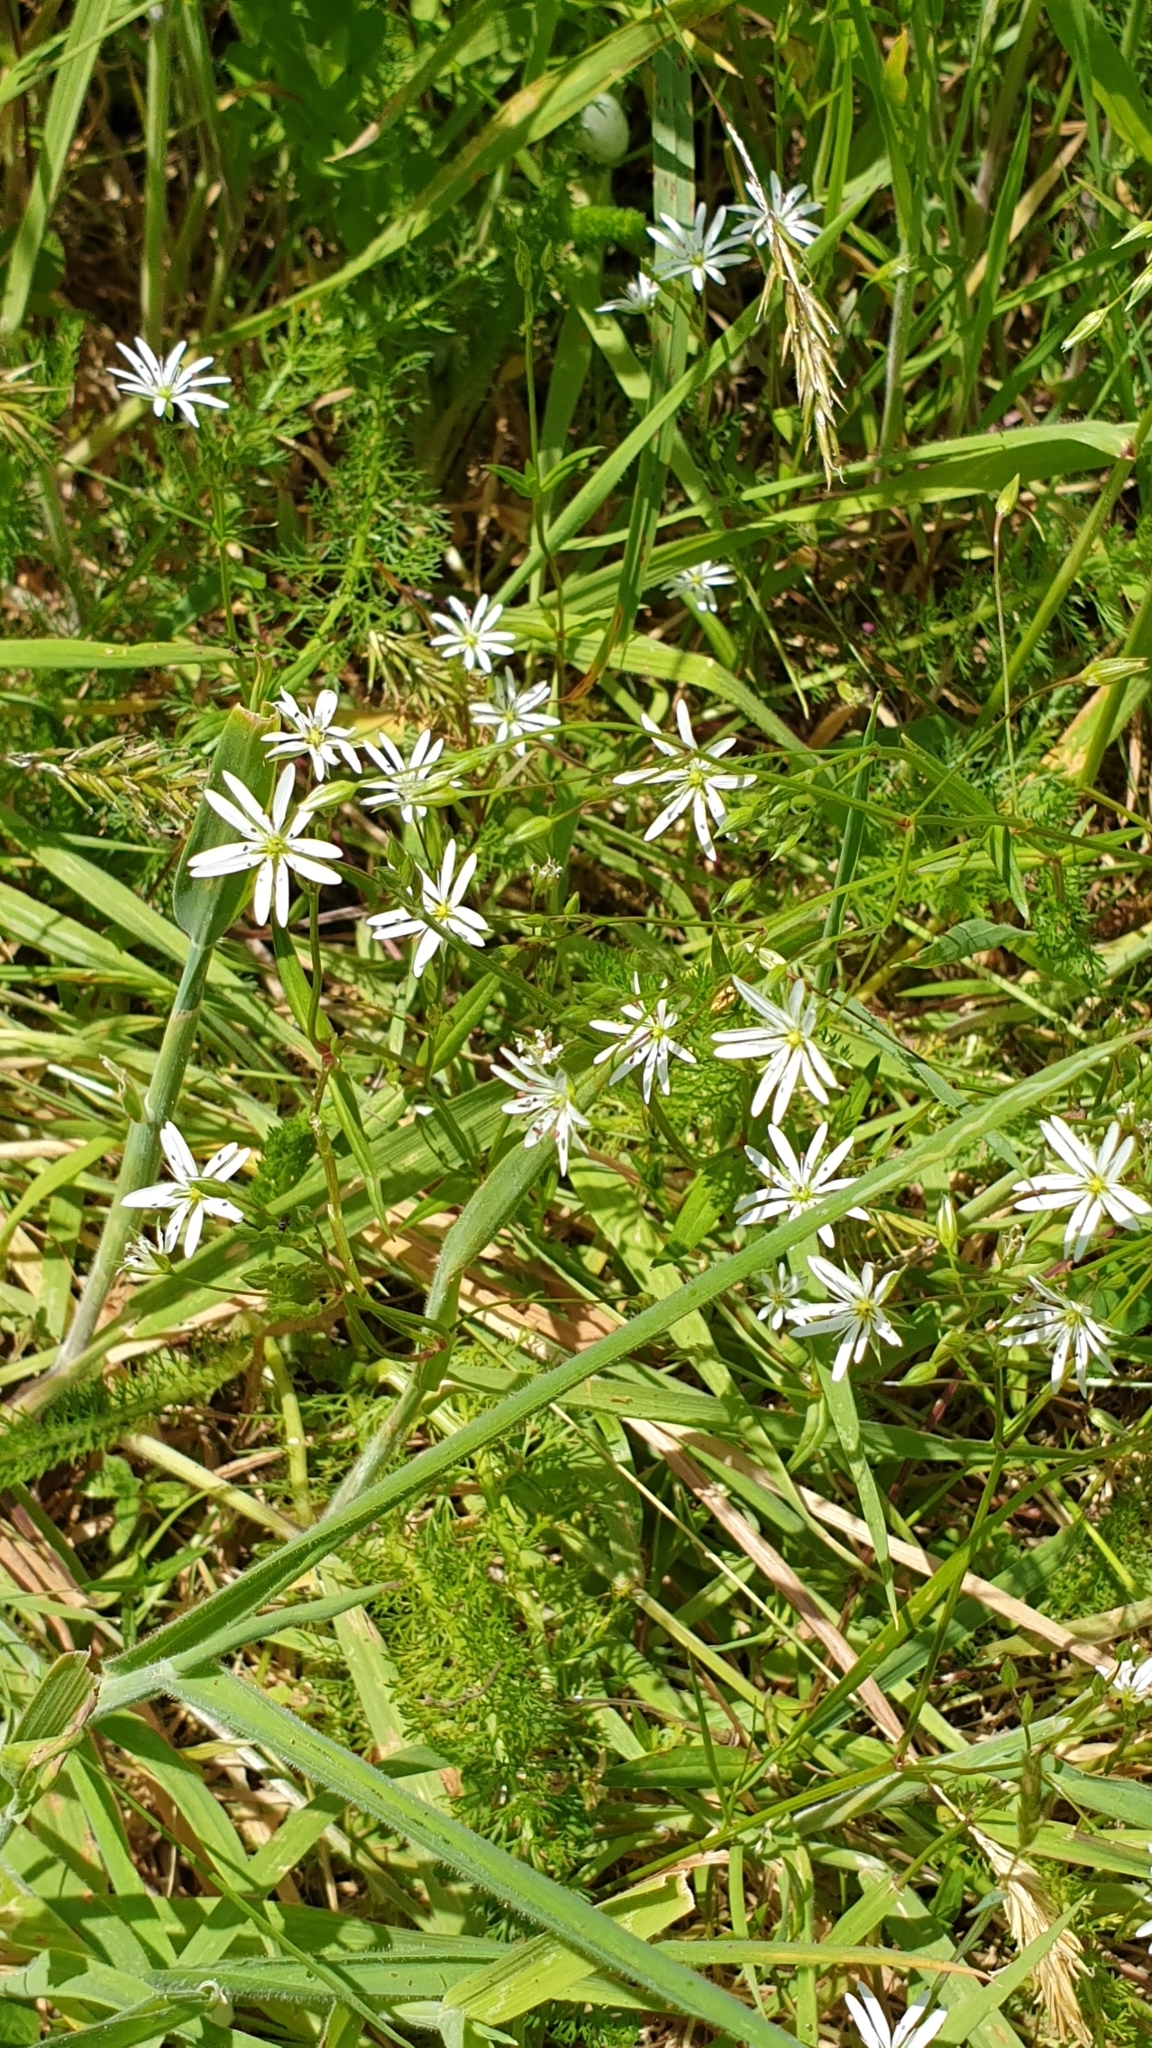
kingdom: Plantae
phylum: Tracheophyta
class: Magnoliopsida
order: Caryophyllales
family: Caryophyllaceae
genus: Stellaria
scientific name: Stellaria graminea
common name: Grass-like starwort
